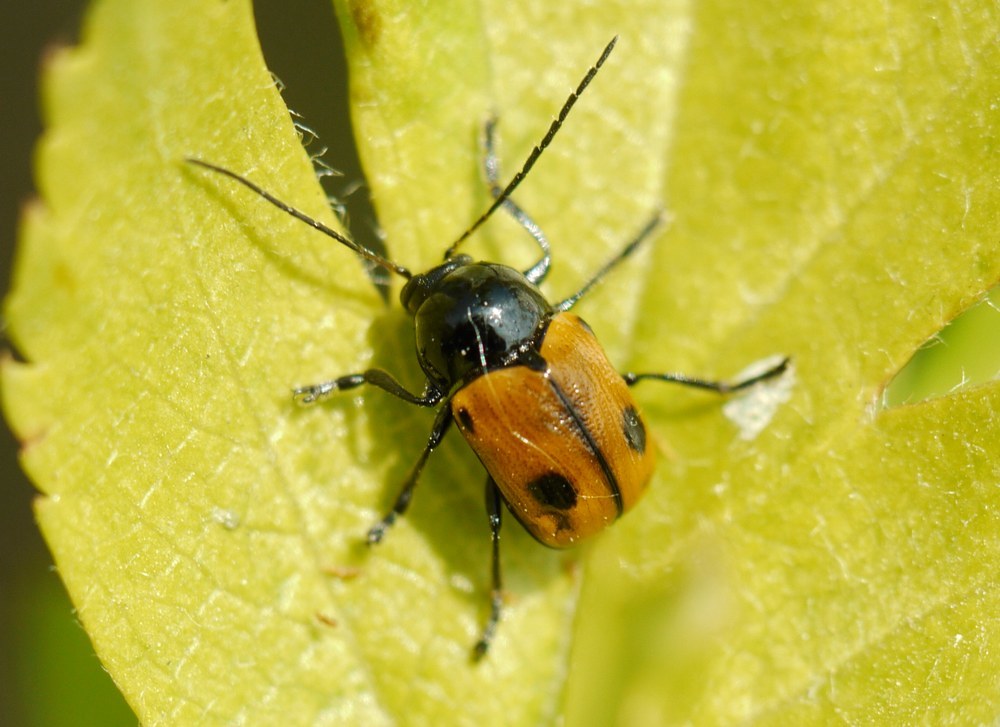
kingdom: Animalia
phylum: Arthropoda
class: Insecta
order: Coleoptera
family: Chrysomelidae
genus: Chiridopsis
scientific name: Chiridopsis bipunctata
